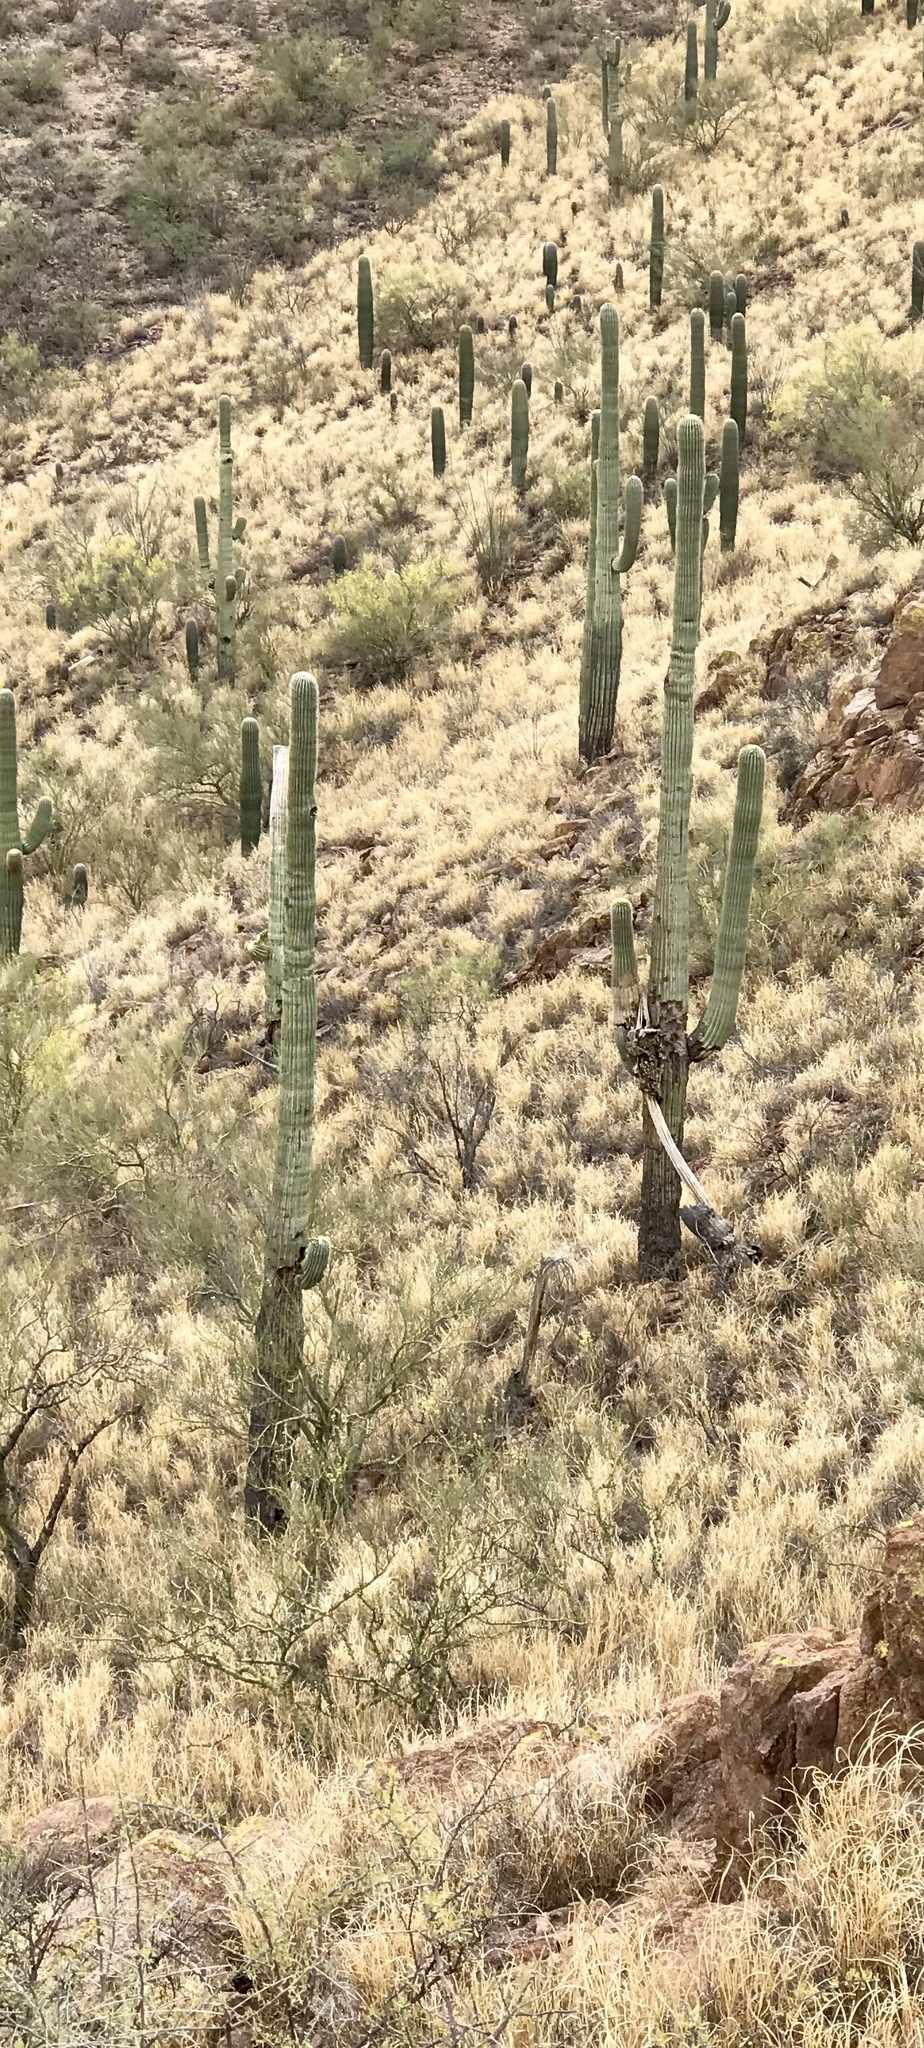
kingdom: Plantae
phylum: Tracheophyta
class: Magnoliopsida
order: Caryophyllales
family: Cactaceae
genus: Carnegiea
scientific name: Carnegiea gigantea
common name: Saguaro
